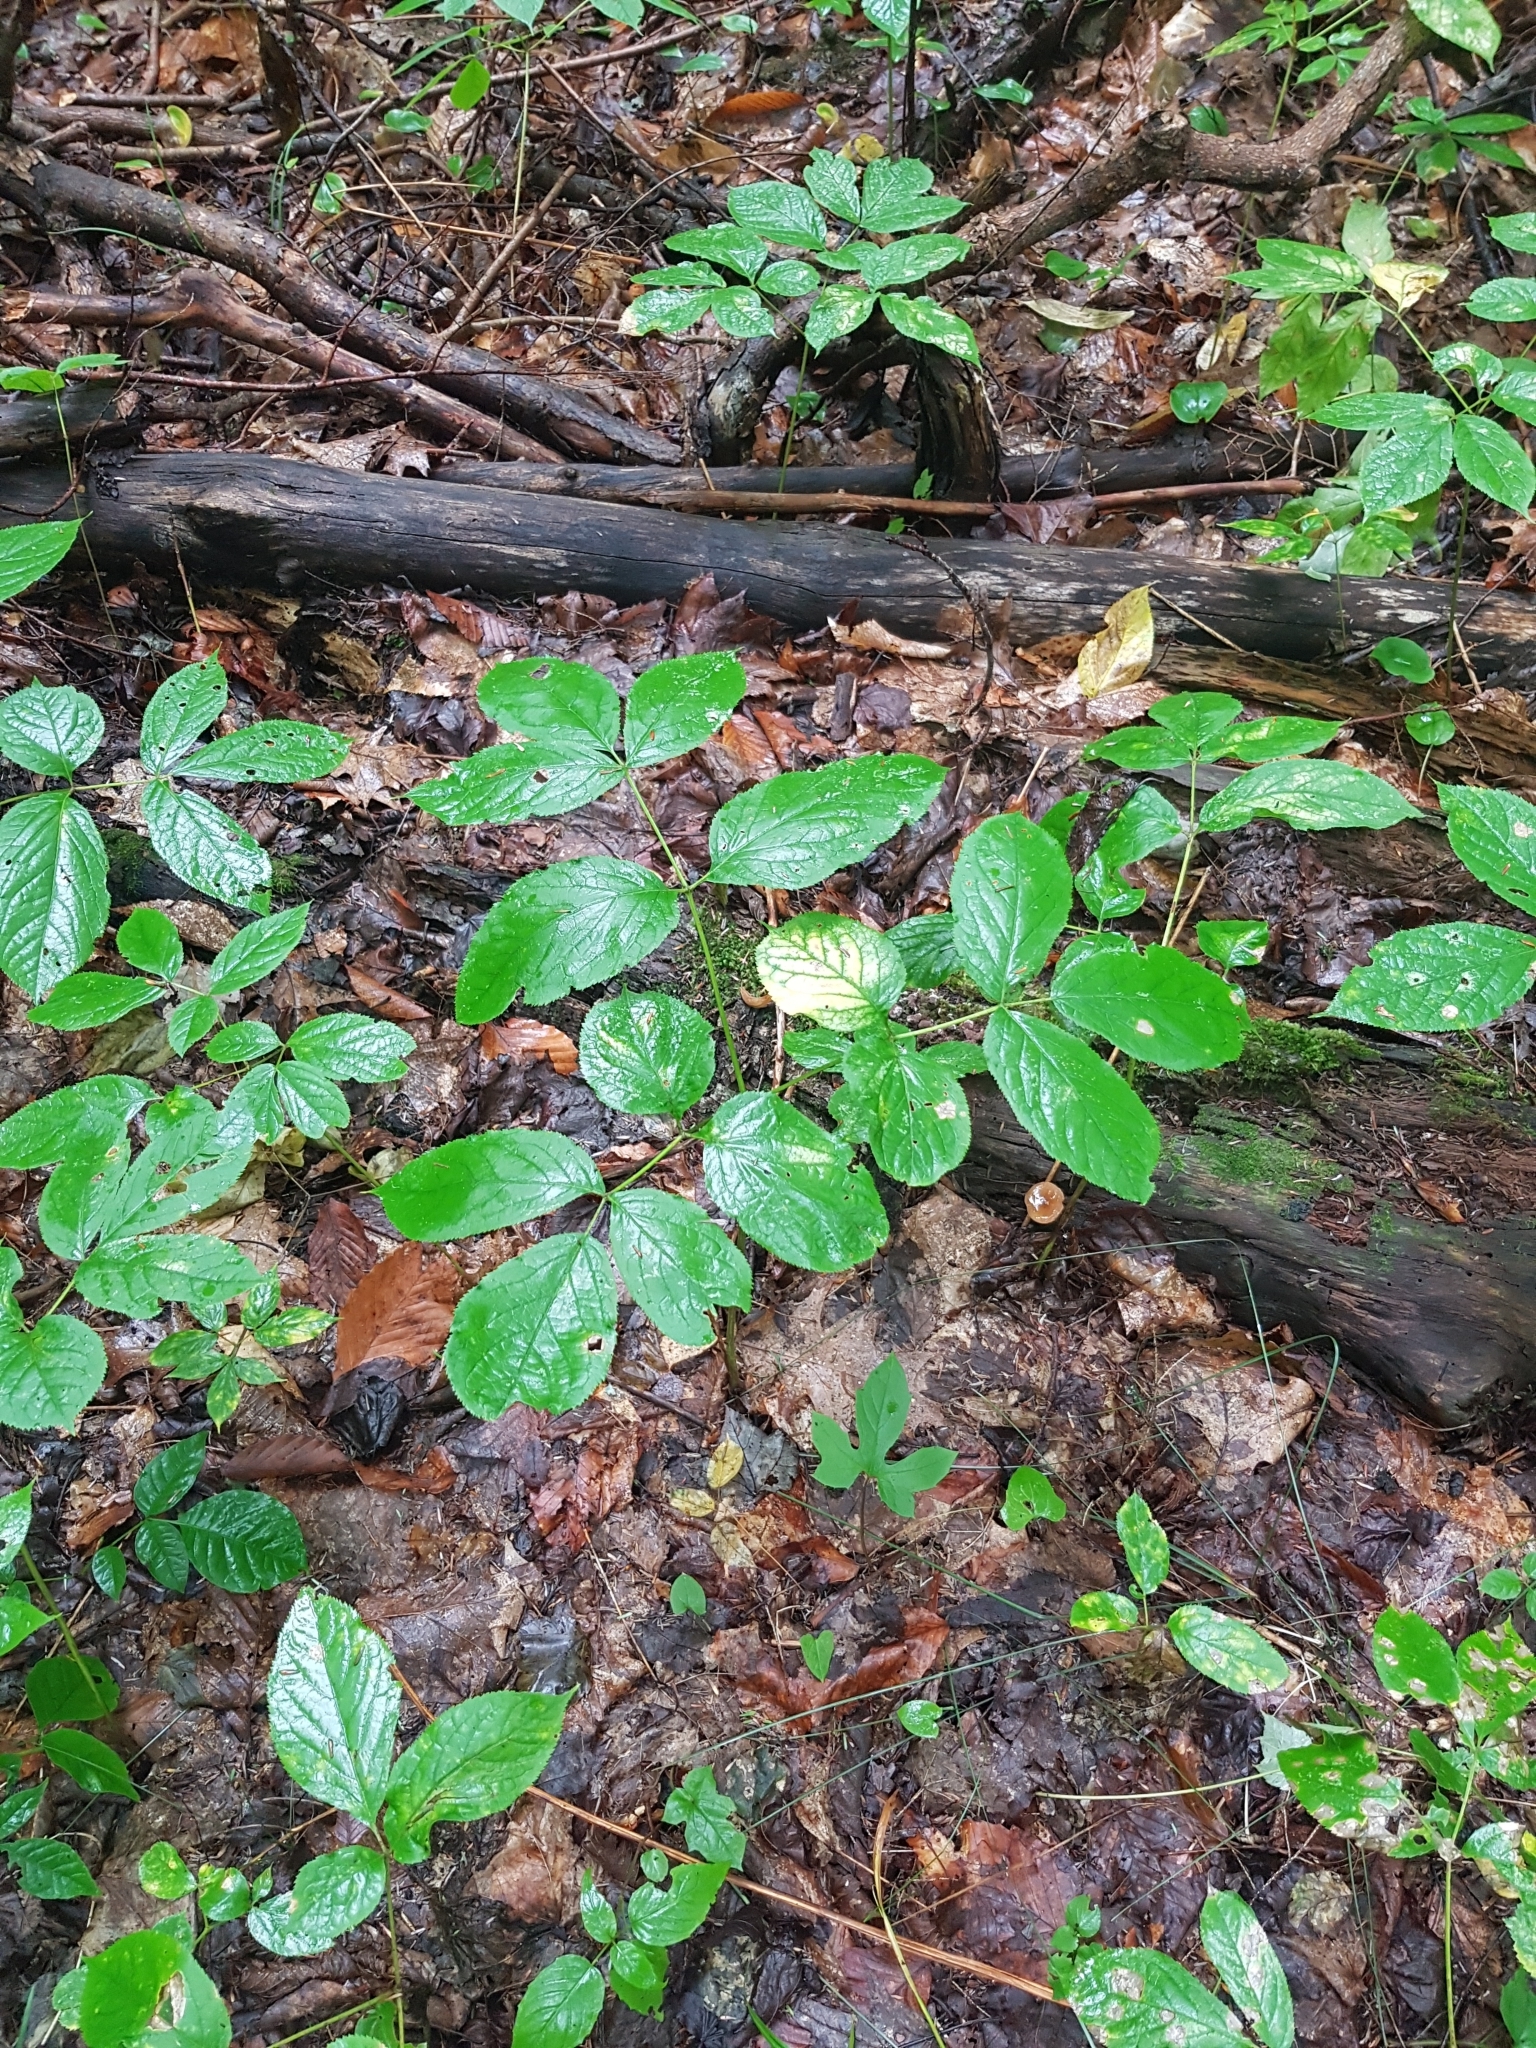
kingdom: Plantae
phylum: Tracheophyta
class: Magnoliopsida
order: Apiales
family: Araliaceae
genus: Aralia
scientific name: Aralia nudicaulis
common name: Wild sarsaparilla
